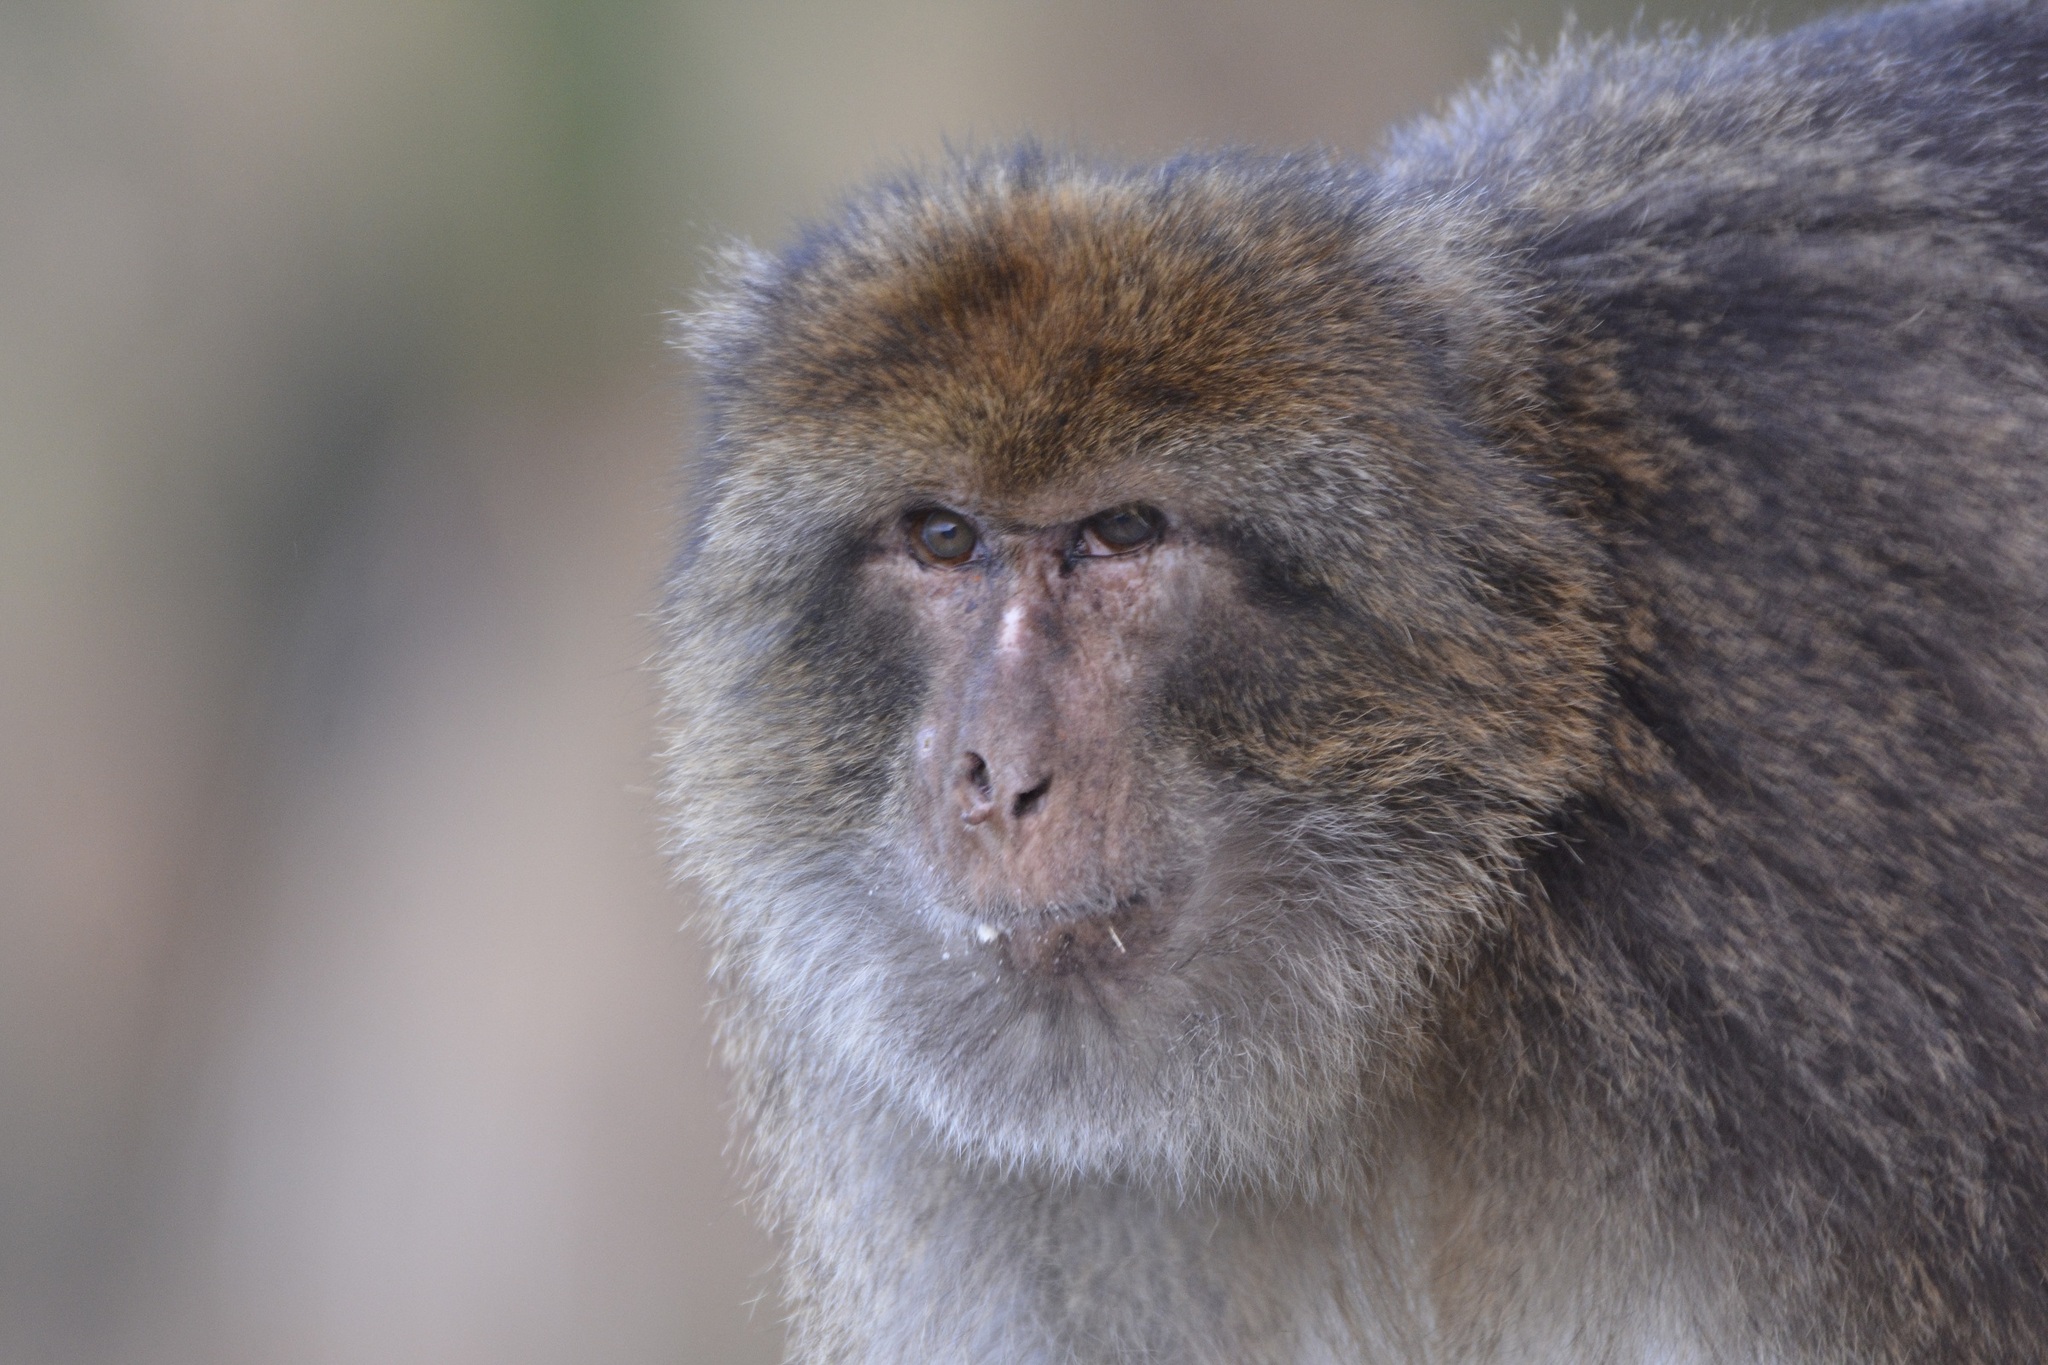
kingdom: Animalia
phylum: Chordata
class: Mammalia
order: Primates
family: Cercopithecidae
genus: Macaca
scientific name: Macaca sylvanus
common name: Barbary macaque
